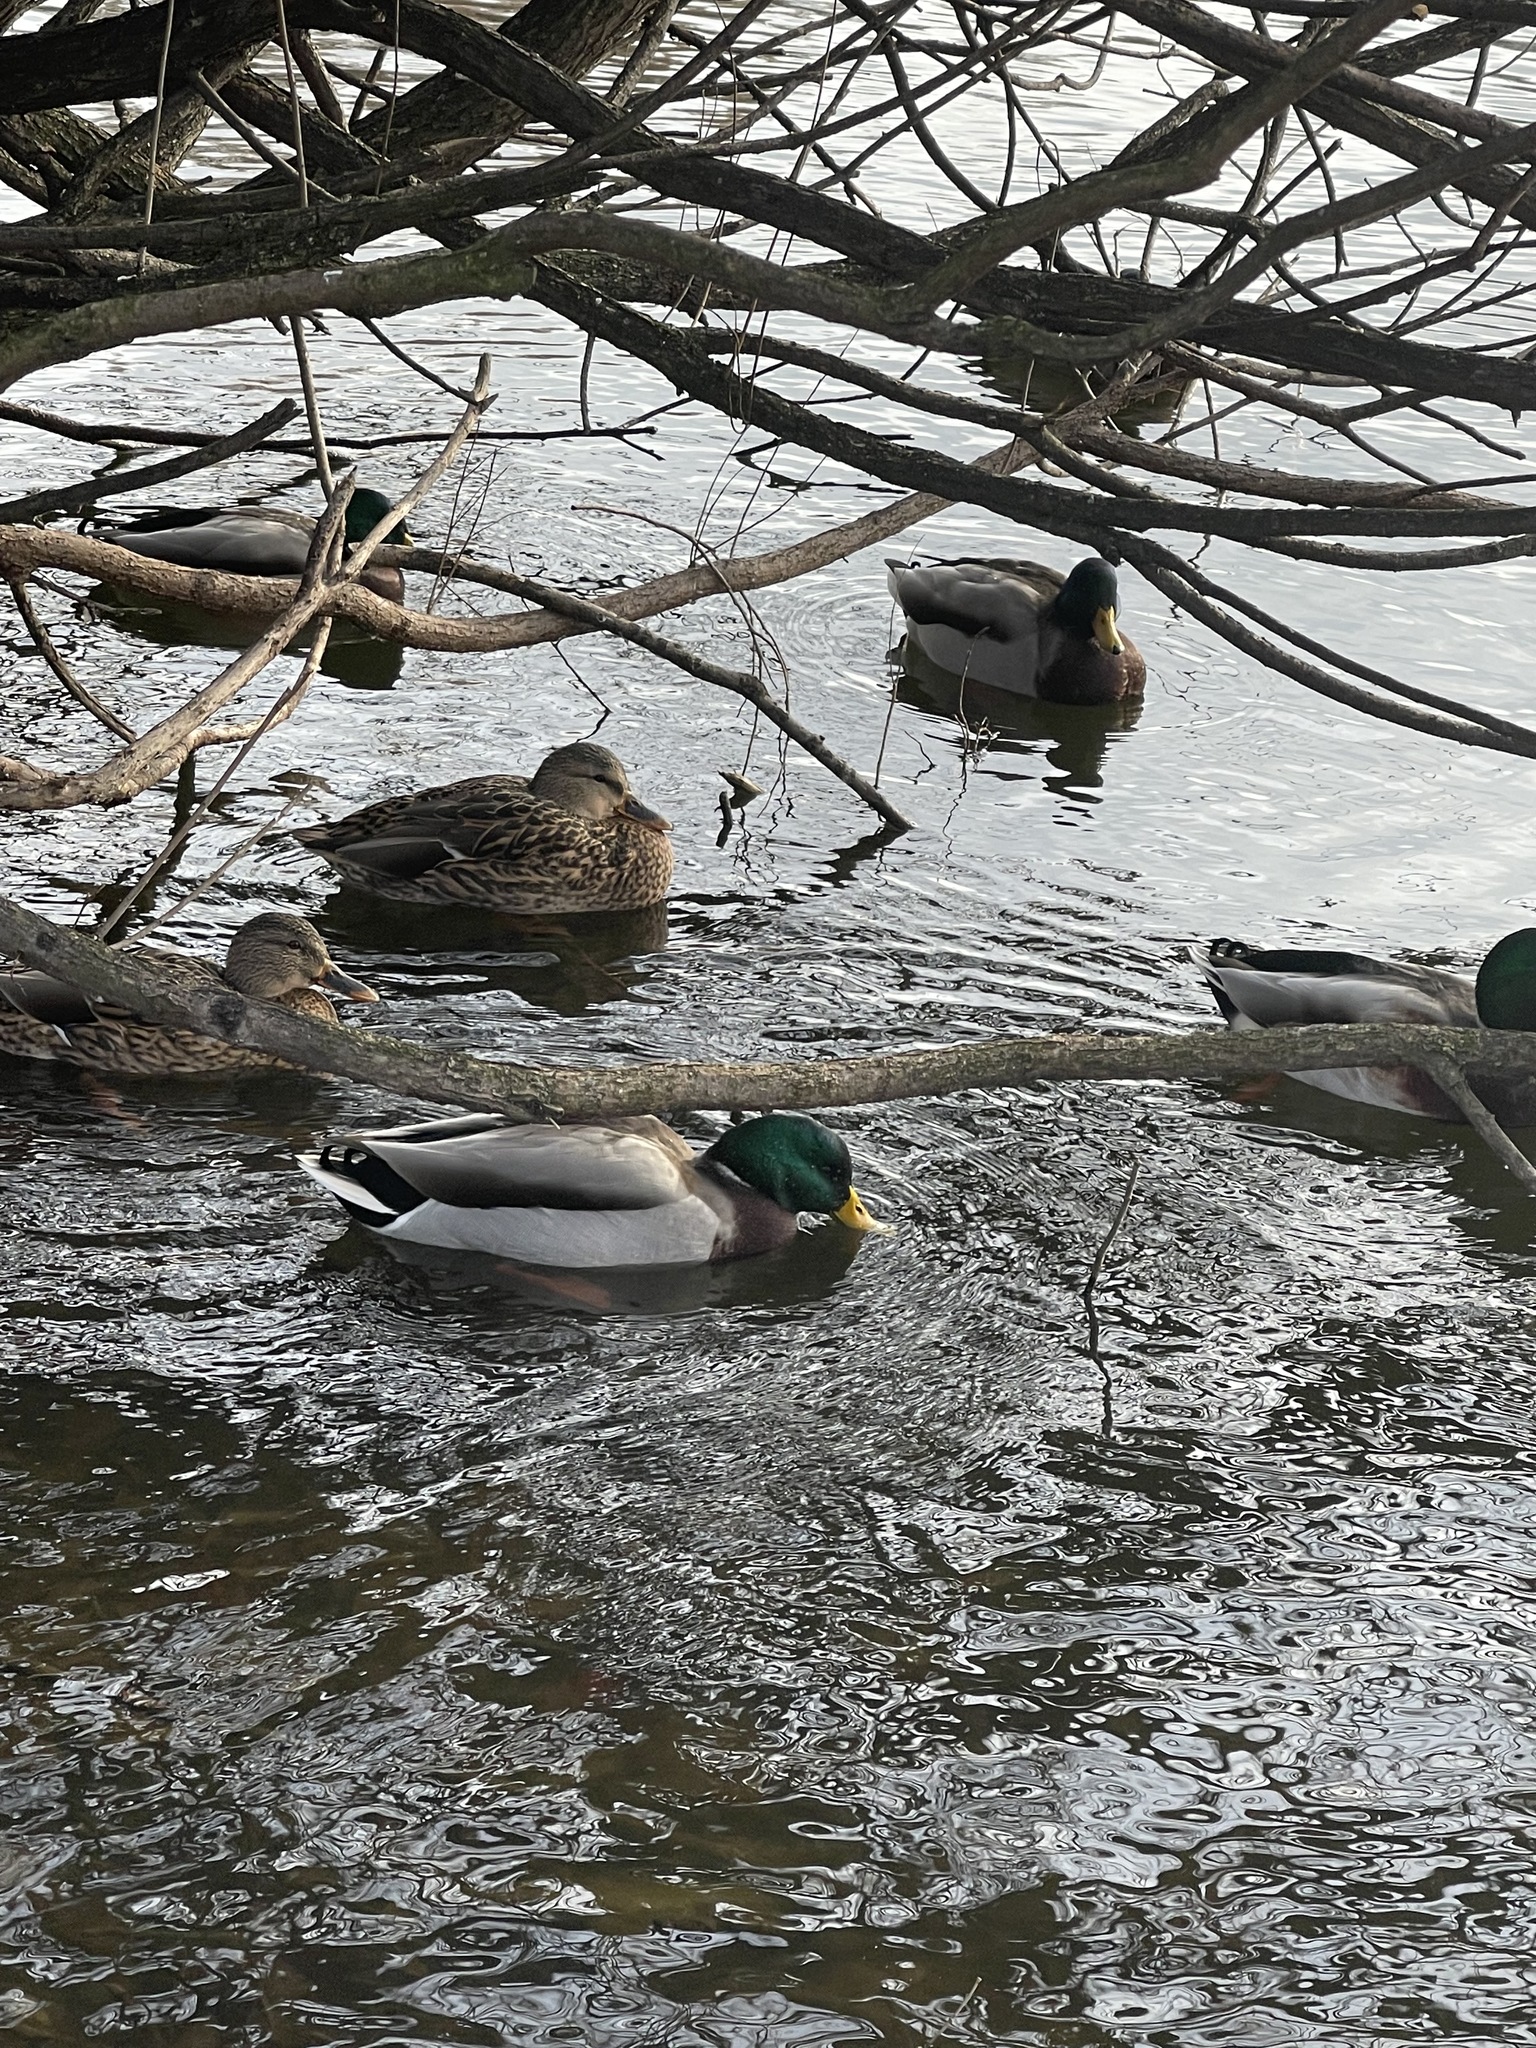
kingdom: Animalia
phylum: Chordata
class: Aves
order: Anseriformes
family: Anatidae
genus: Anas
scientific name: Anas platyrhynchos
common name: Mallard
